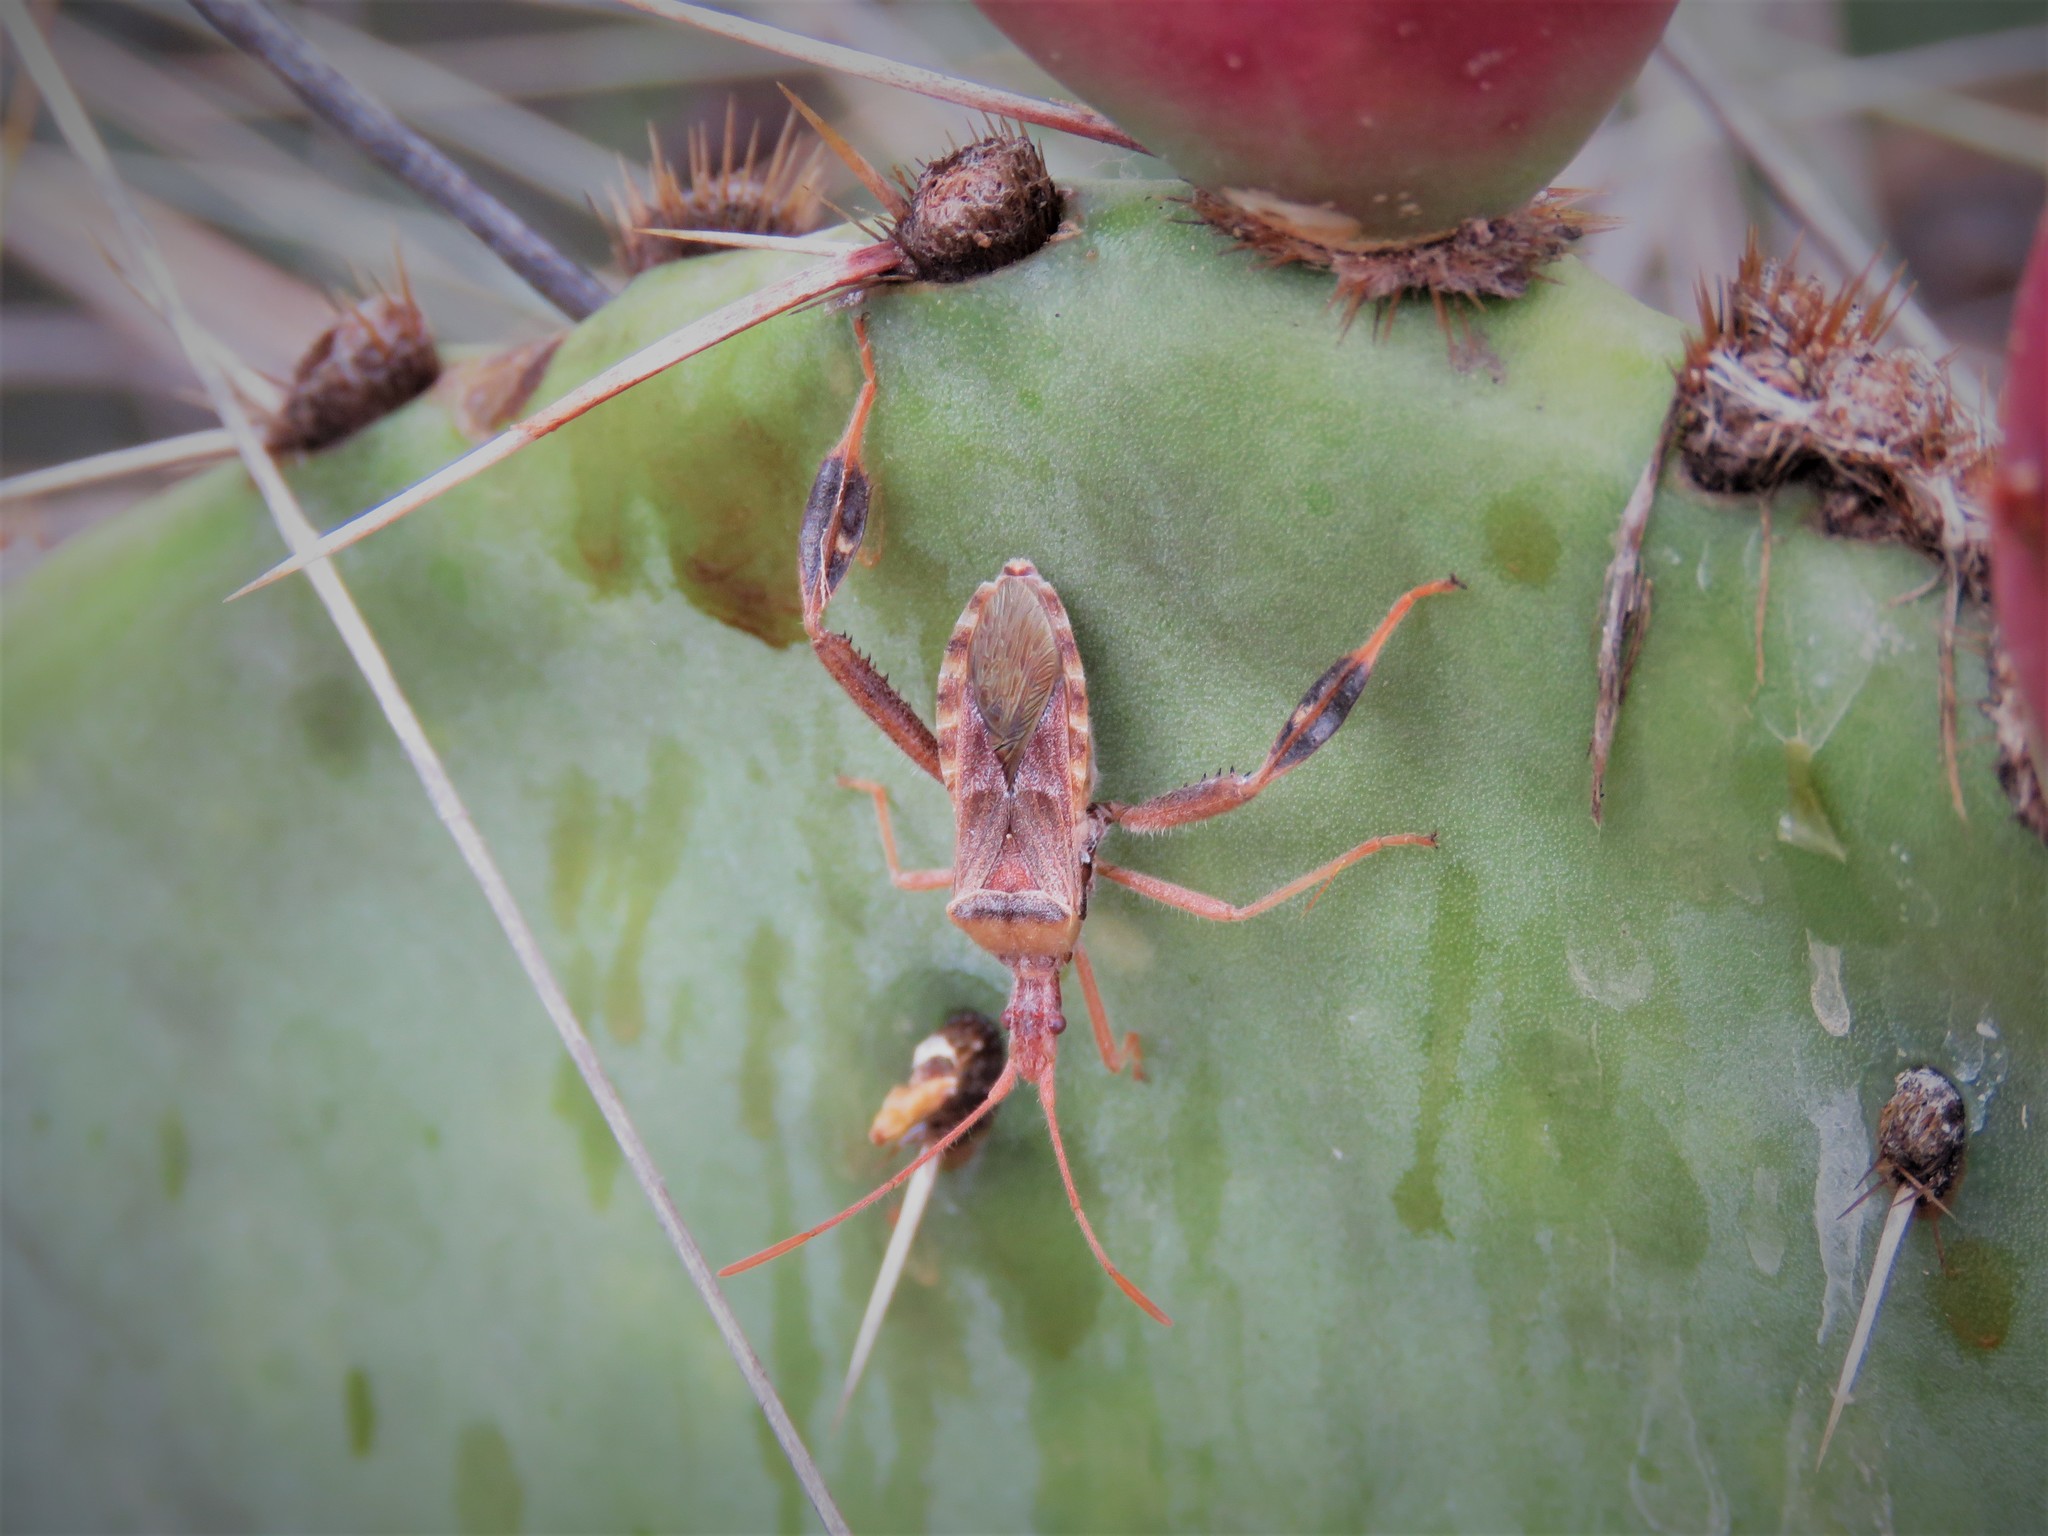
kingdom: Animalia
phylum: Arthropoda
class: Insecta
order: Hemiptera
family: Coreidae
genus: Narnia
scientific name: Narnia femorata
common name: Leaf-footed cactus bug
